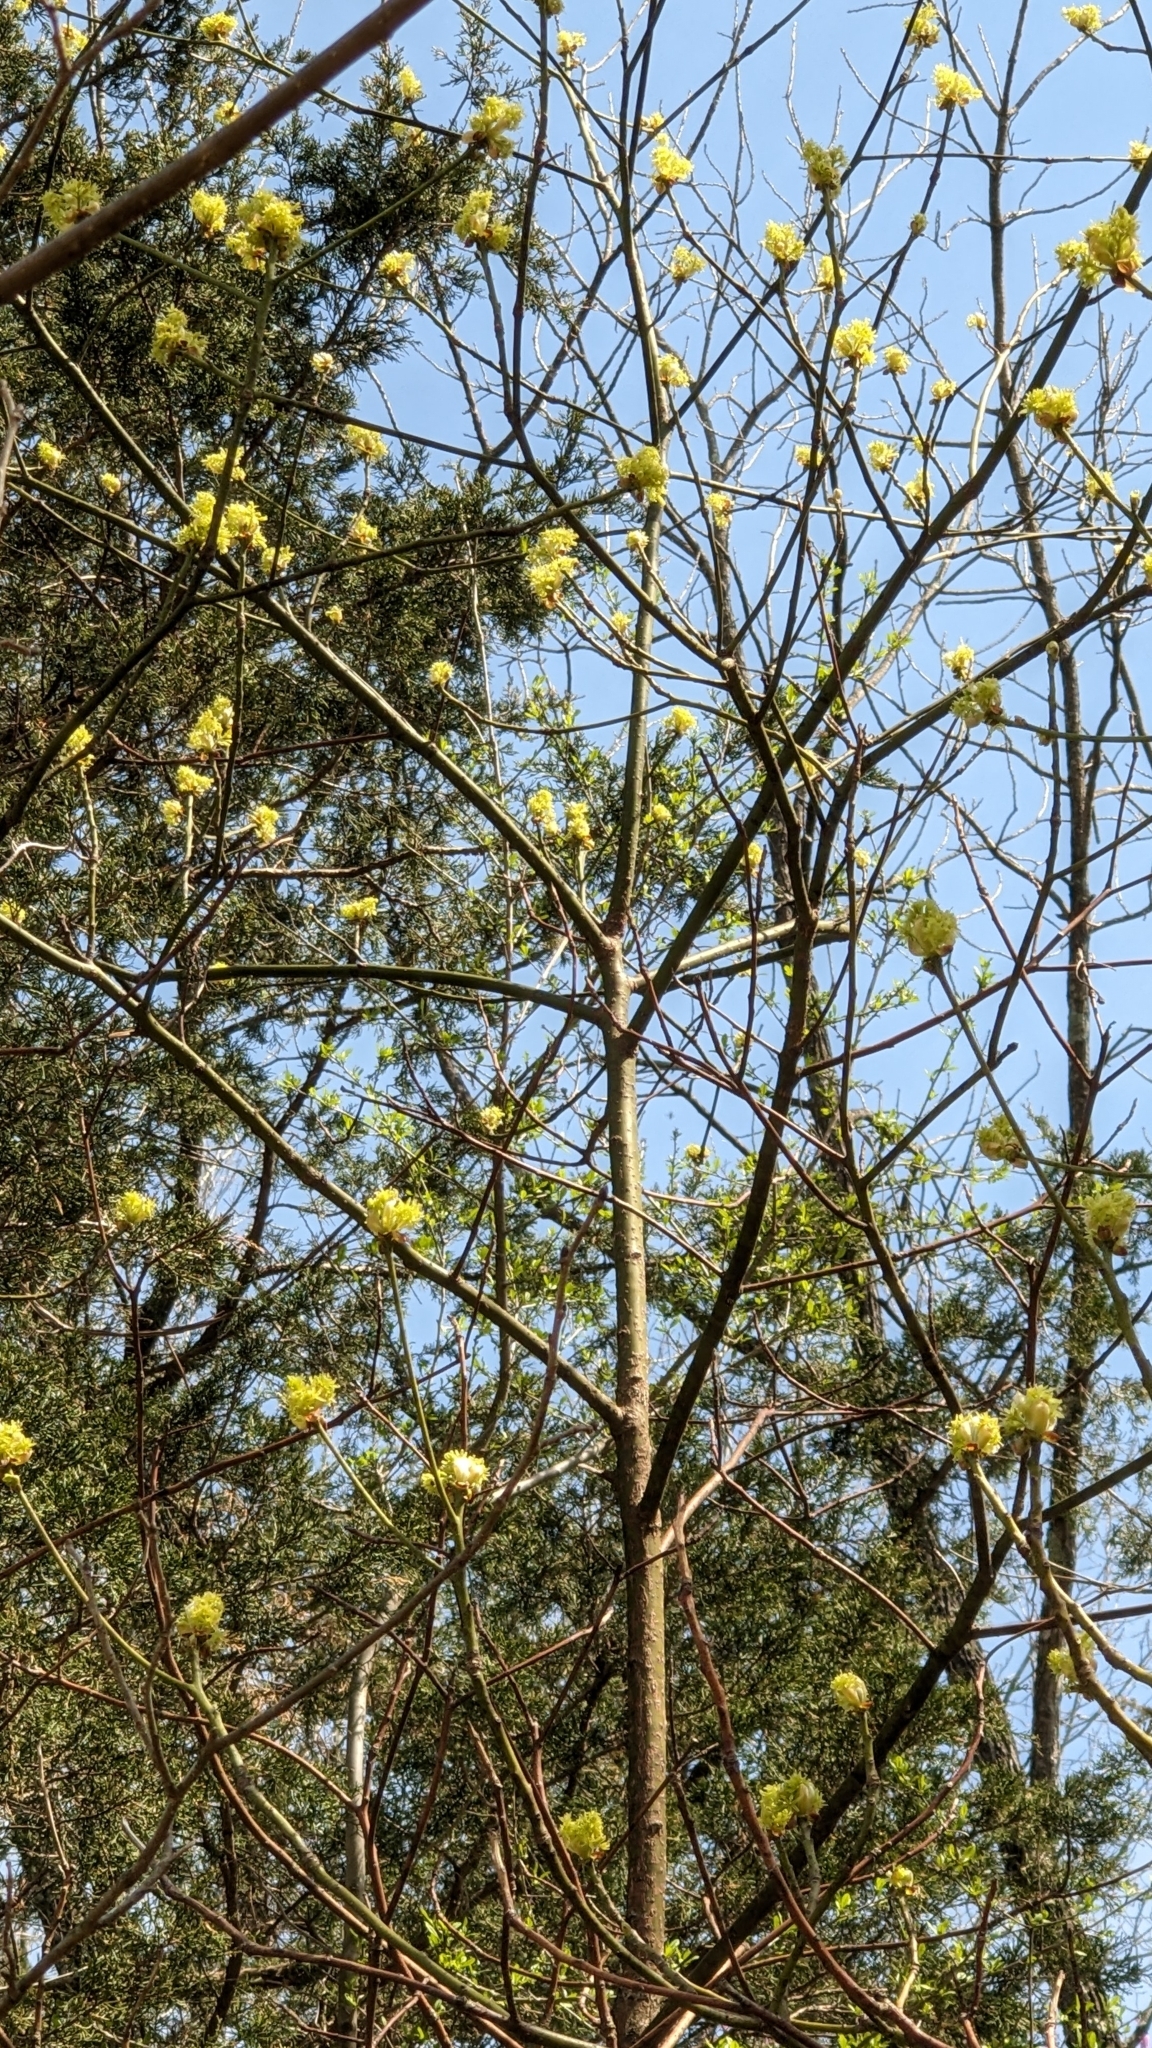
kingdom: Plantae
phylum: Tracheophyta
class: Magnoliopsida
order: Laurales
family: Lauraceae
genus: Sassafras
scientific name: Sassafras albidum
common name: Sassafras
